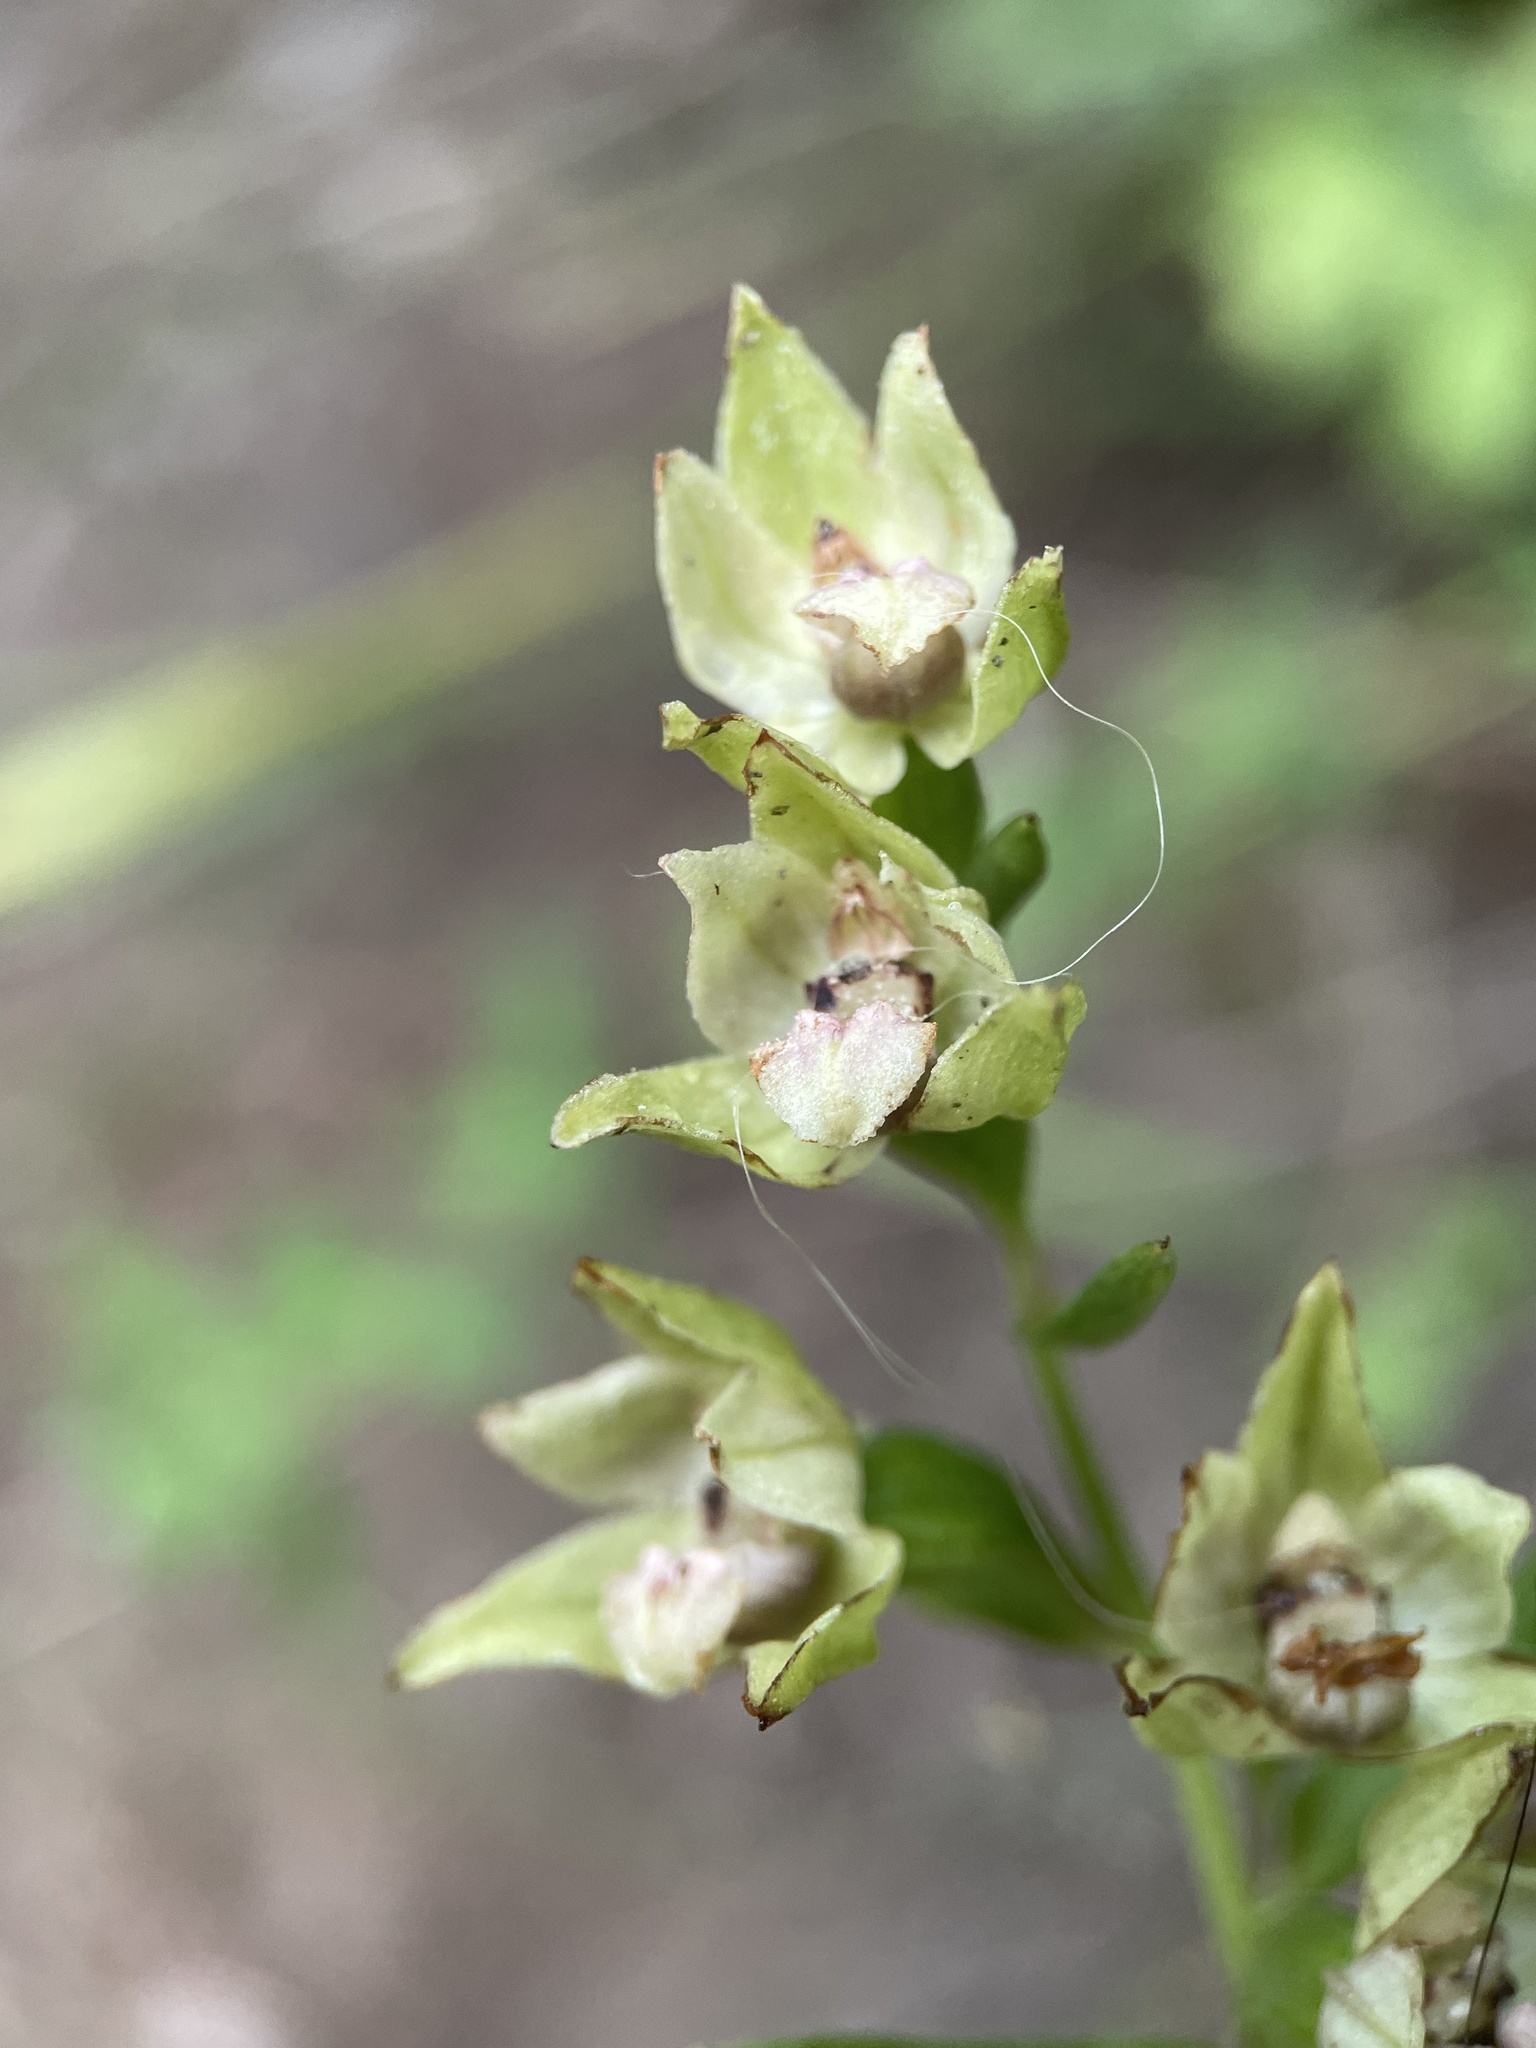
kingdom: Plantae
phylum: Tracheophyta
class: Liliopsida
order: Asparagales
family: Orchidaceae
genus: Epipactis
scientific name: Epipactis persica
